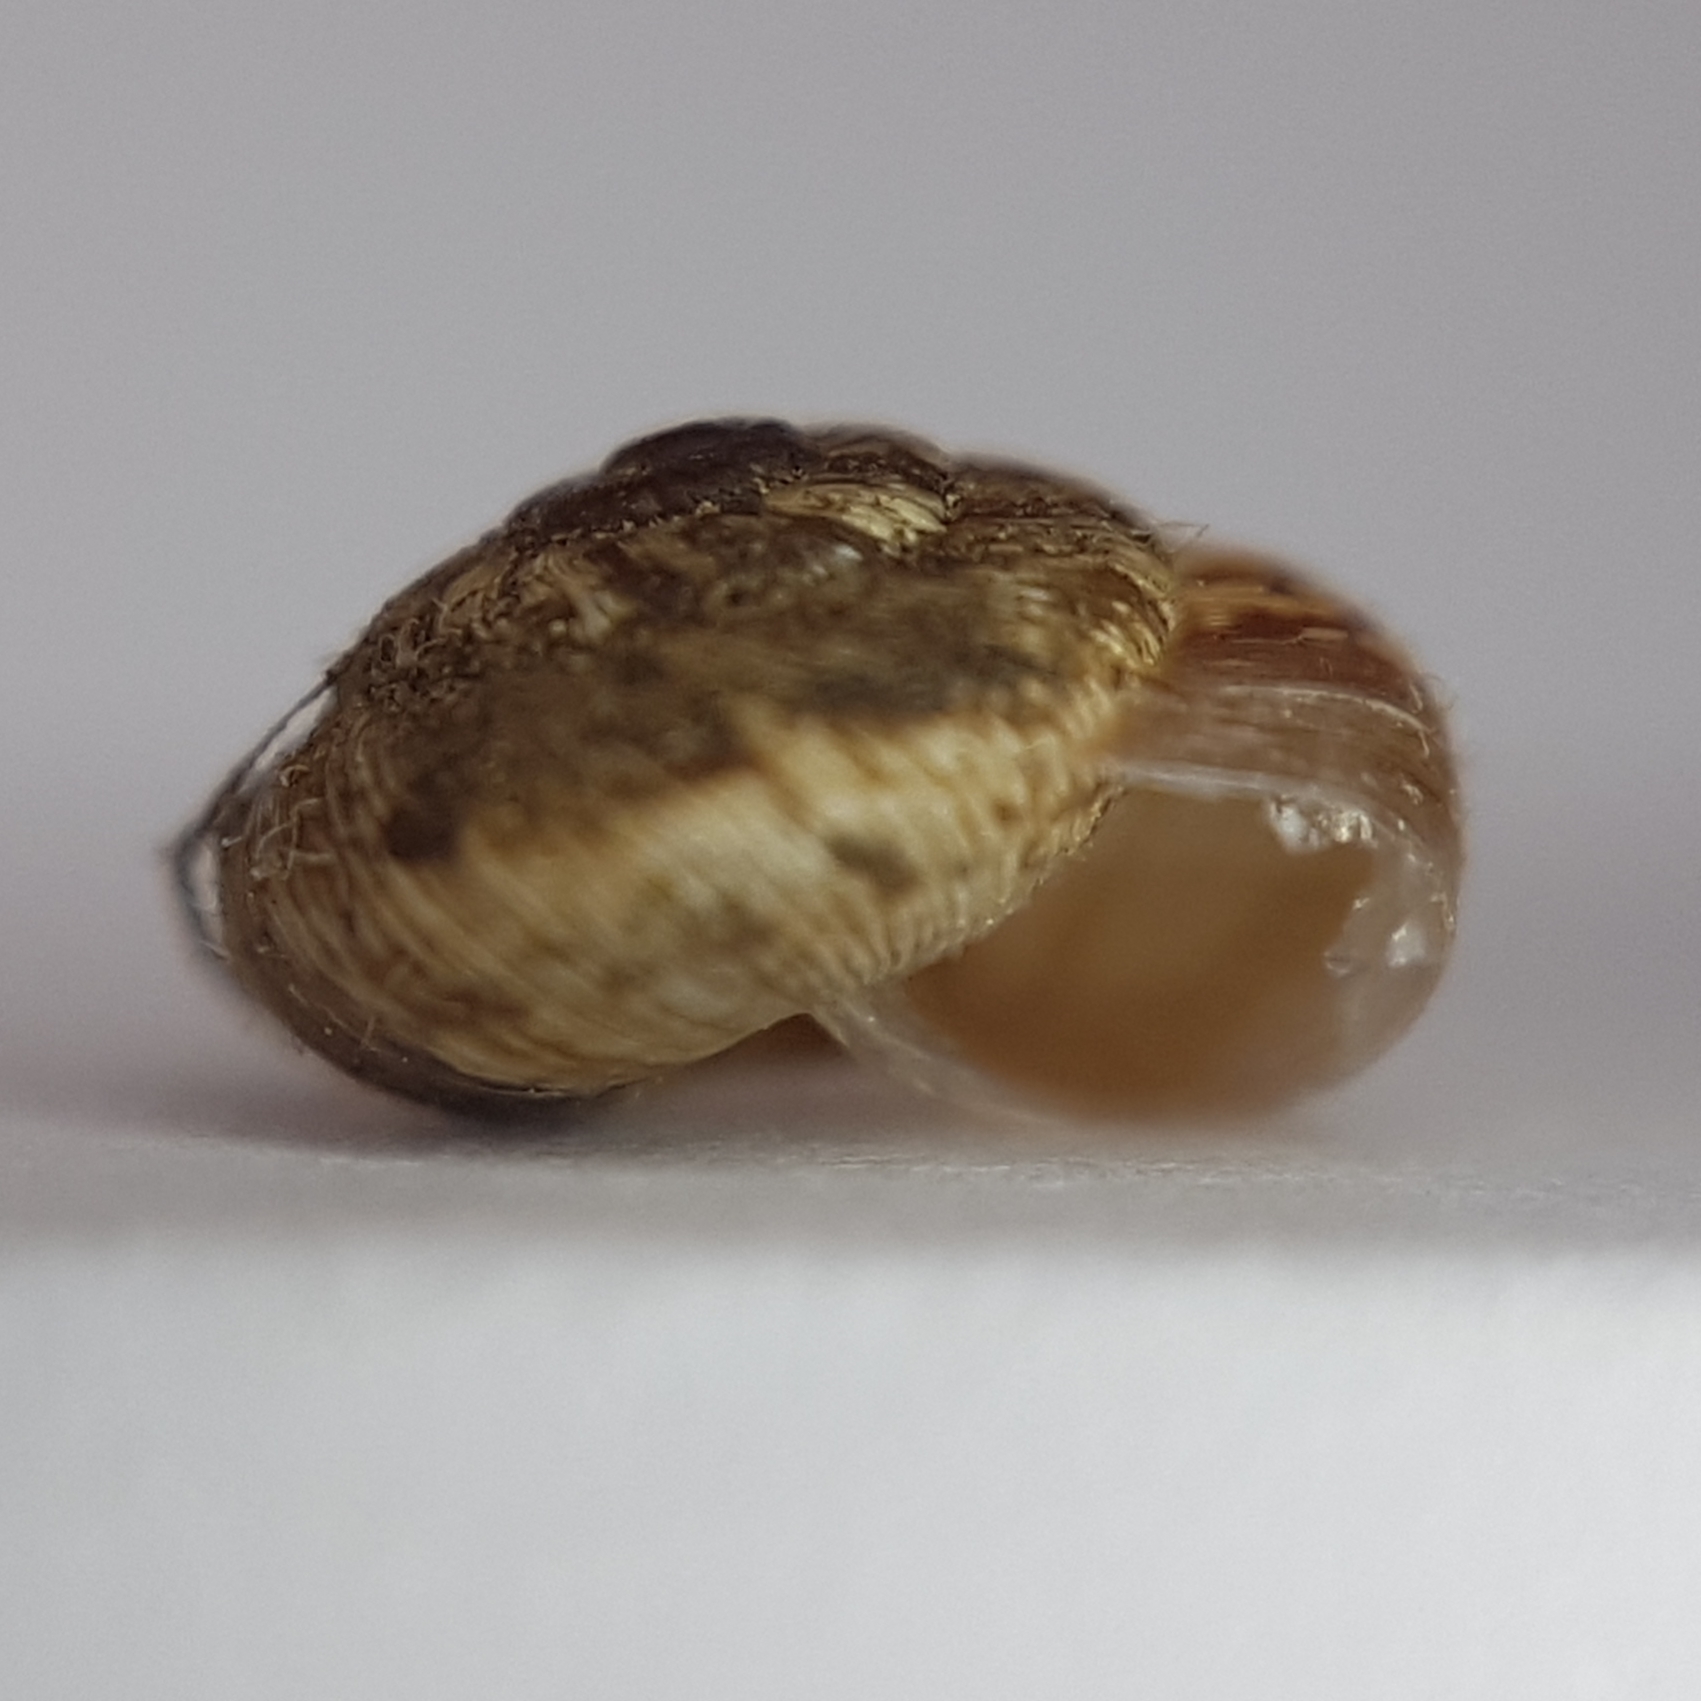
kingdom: Animalia
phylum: Mollusca
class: Gastropoda
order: Stylommatophora
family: Geomitridae
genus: Xerotricha
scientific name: Xerotricha conspurcata
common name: Snail
